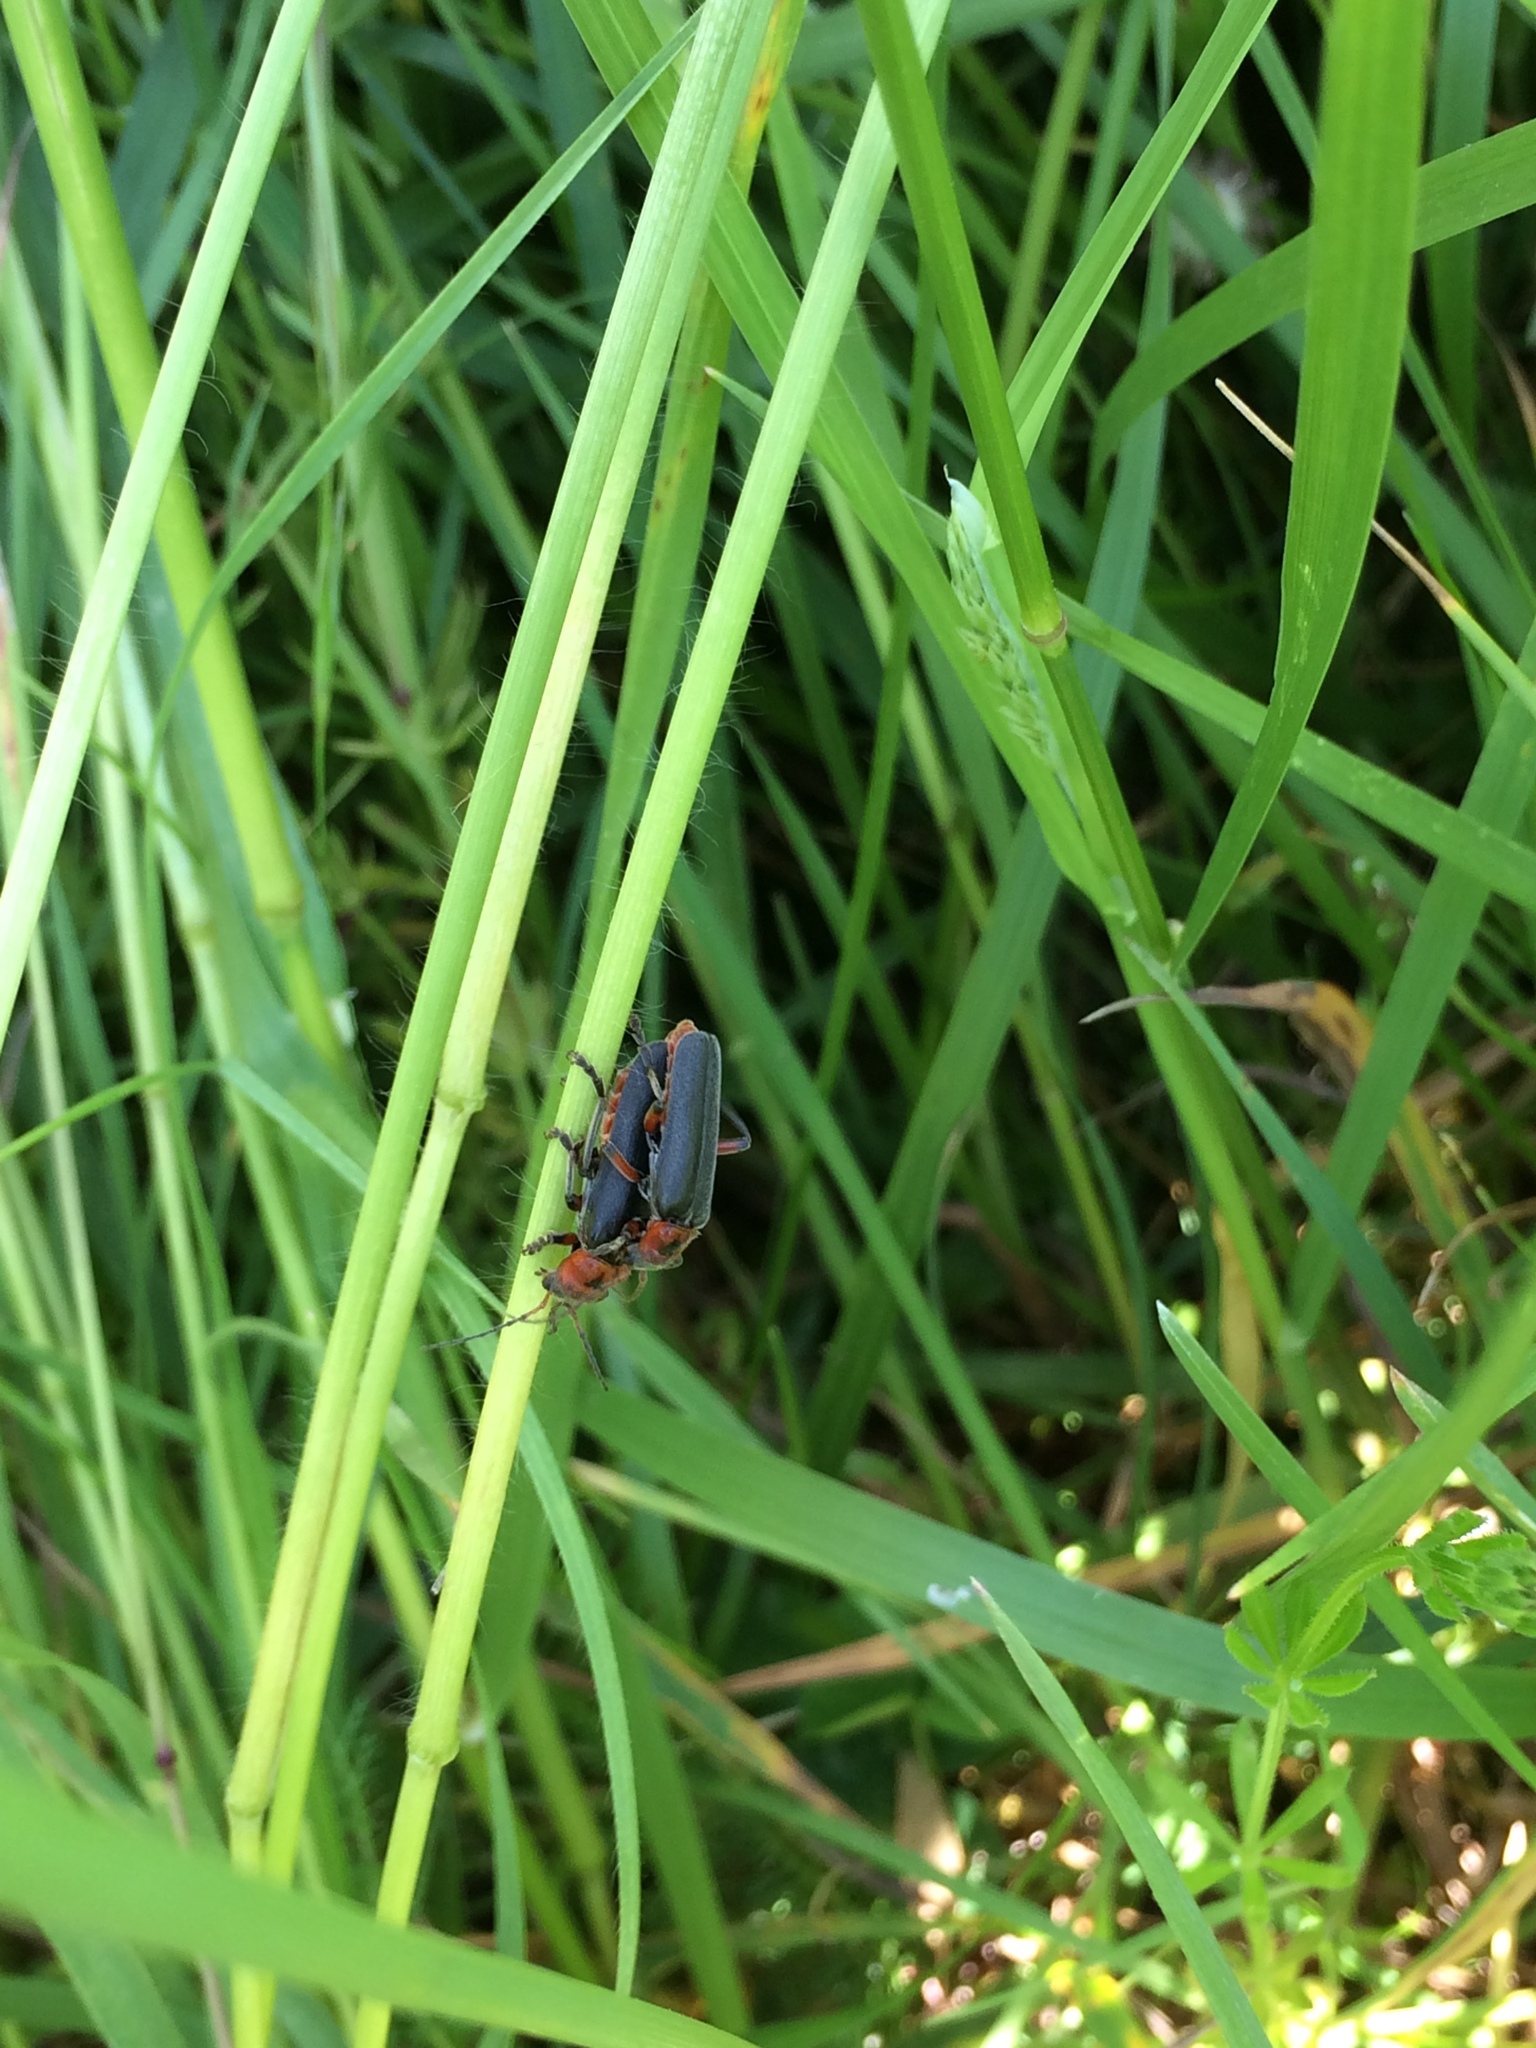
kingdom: Animalia
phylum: Arthropoda
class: Insecta
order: Coleoptera
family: Cantharidae
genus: Cantharis
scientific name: Cantharis rustica
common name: Soldier beetle
